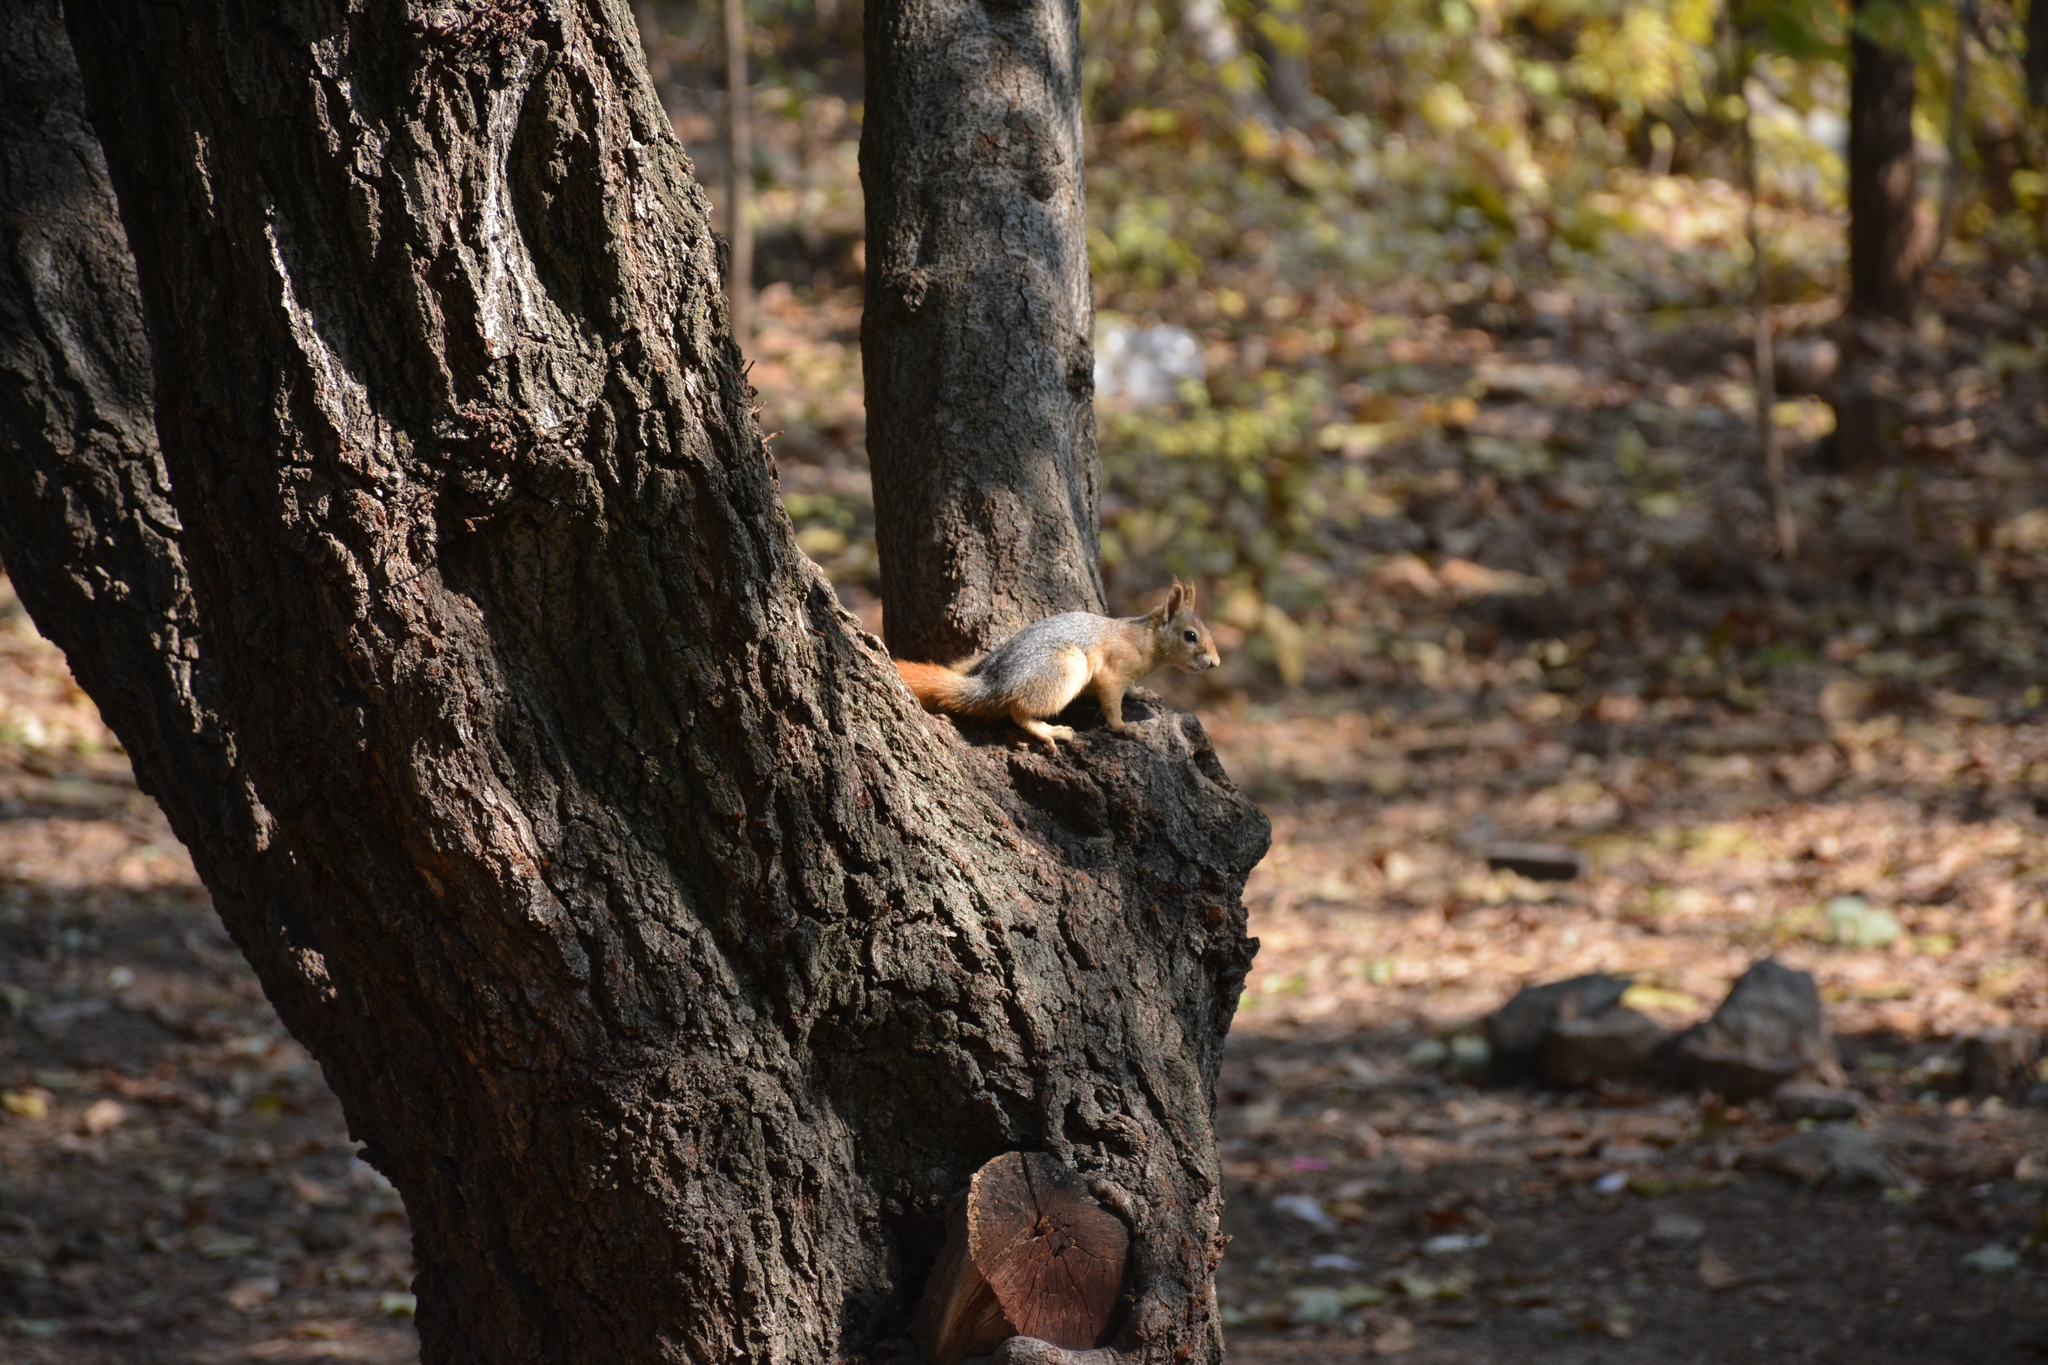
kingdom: Animalia
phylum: Chordata
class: Mammalia
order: Rodentia
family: Sciuridae
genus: Sciurus
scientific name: Sciurus anomalus
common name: Caucasian squirrel
